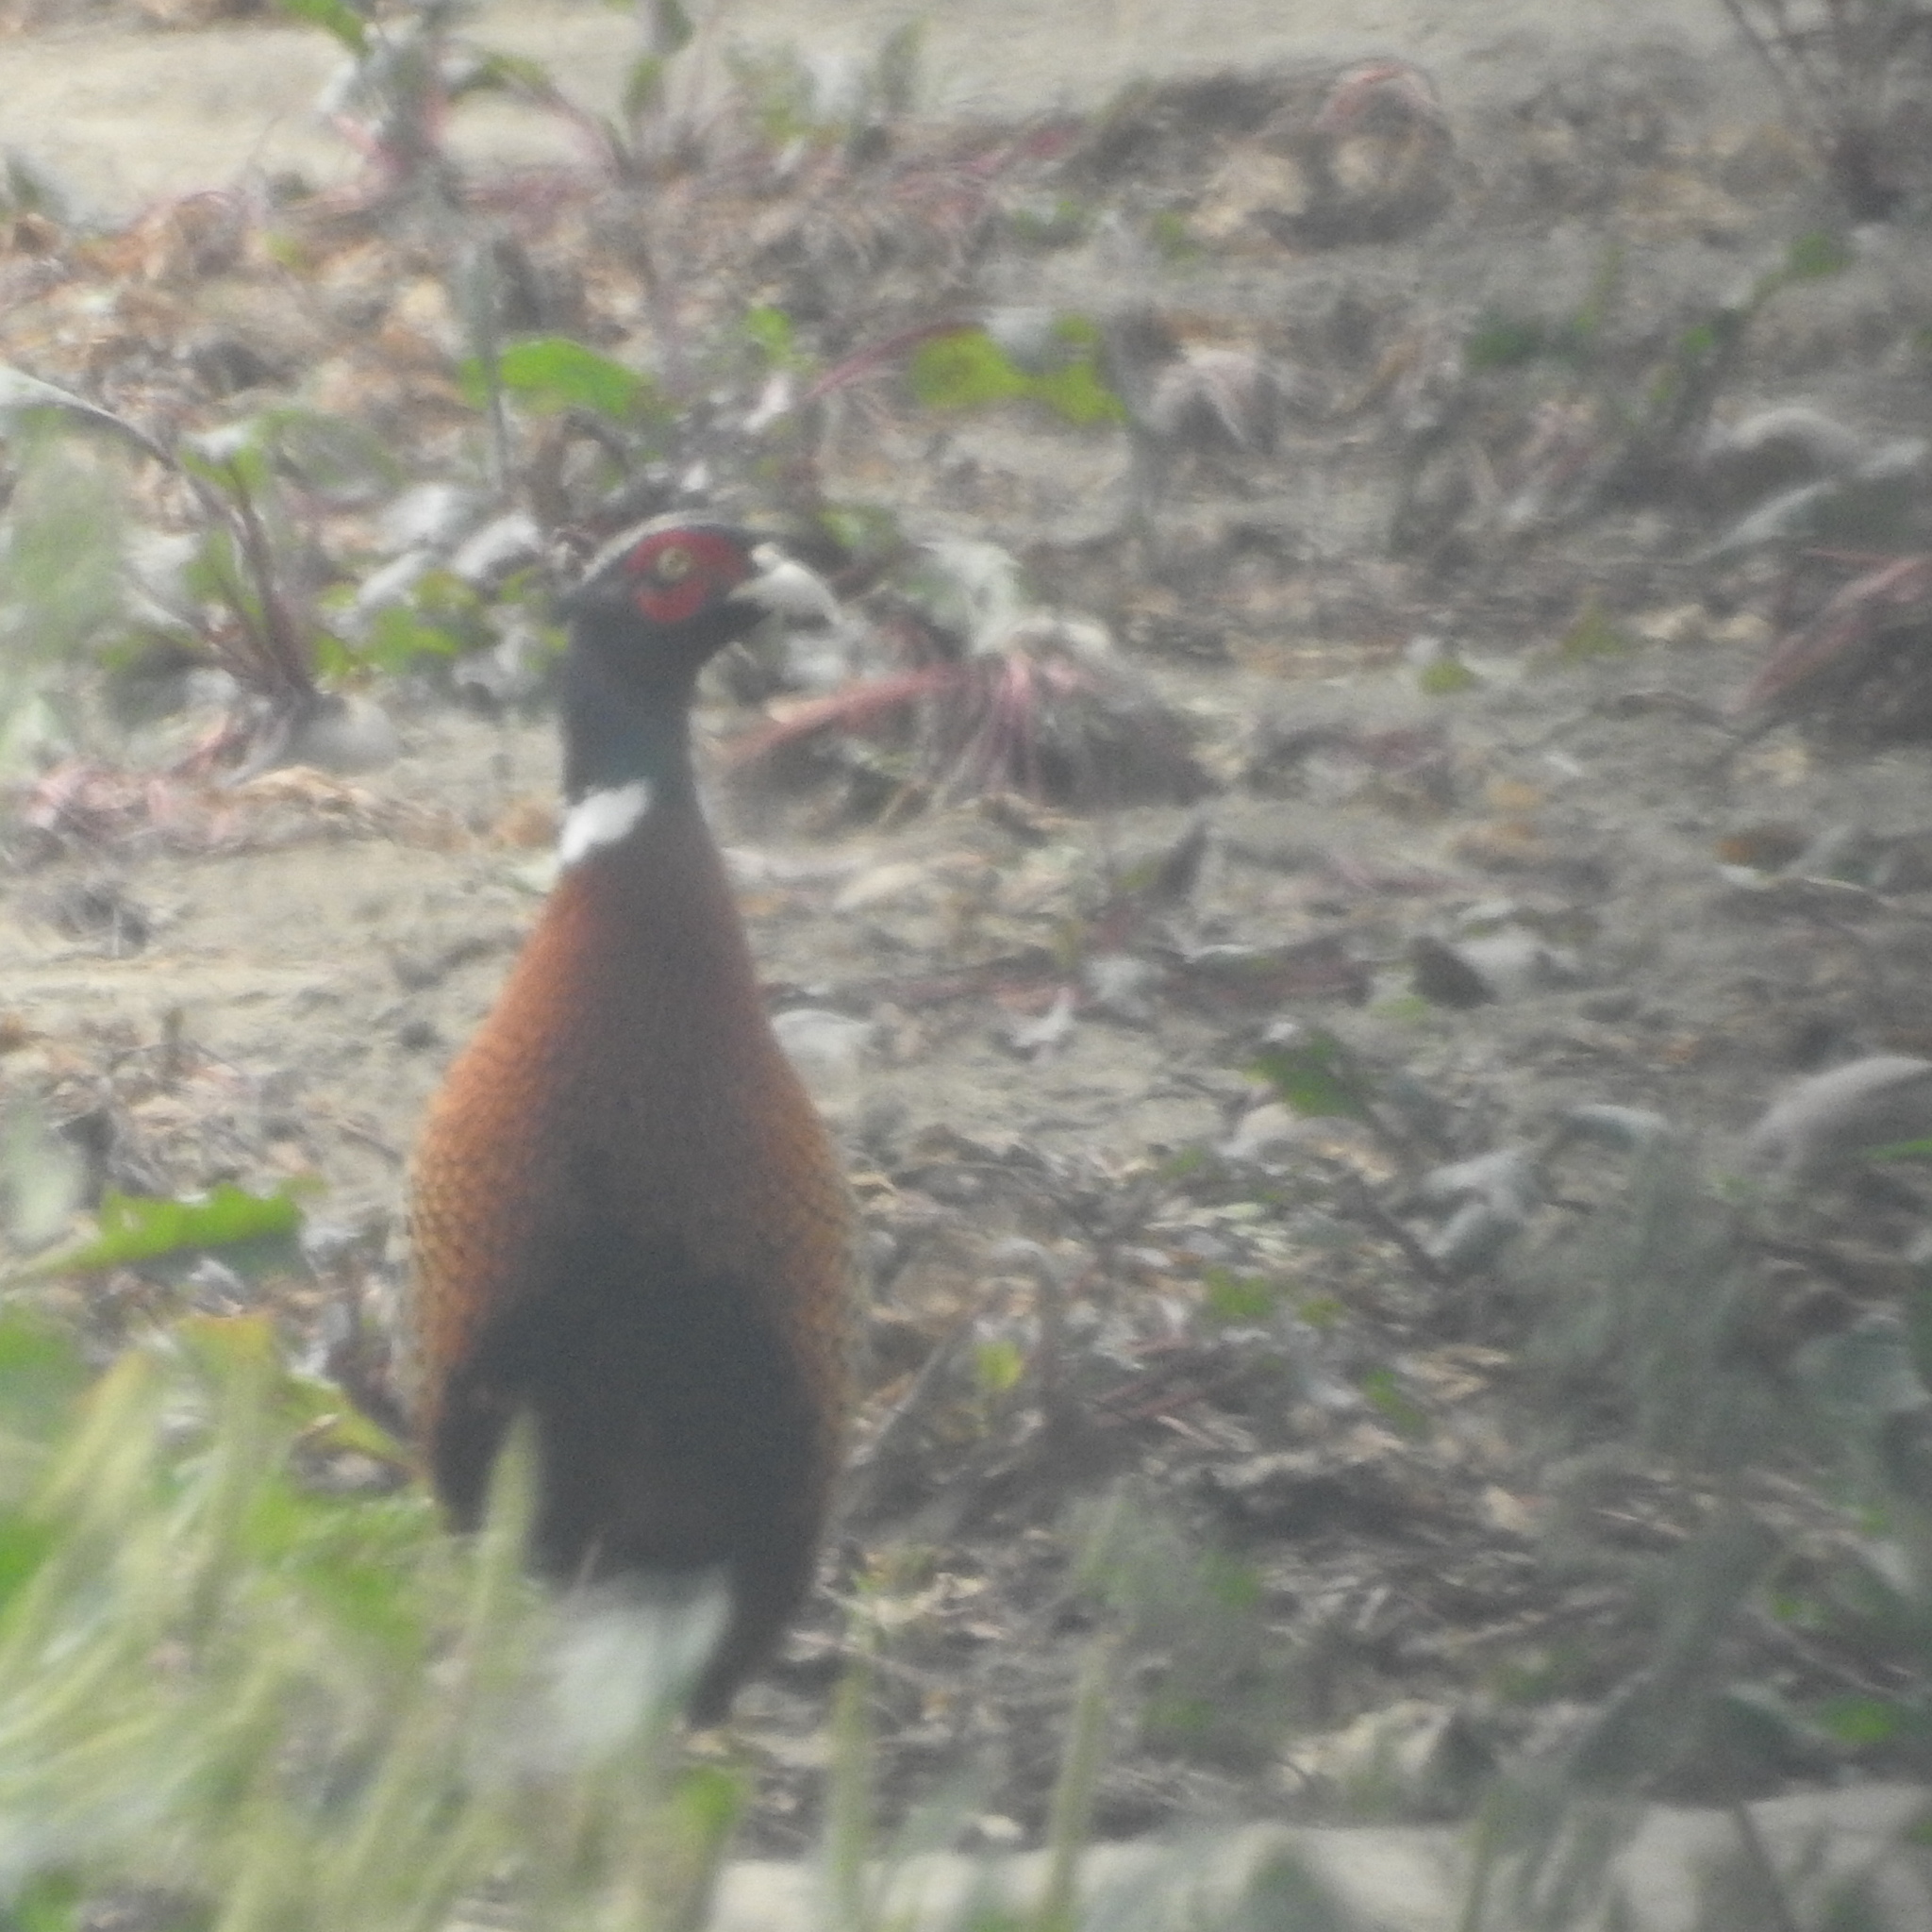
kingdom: Animalia
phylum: Chordata
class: Aves
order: Galliformes
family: Phasianidae
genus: Phasianus
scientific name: Phasianus colchicus
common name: Common pheasant
